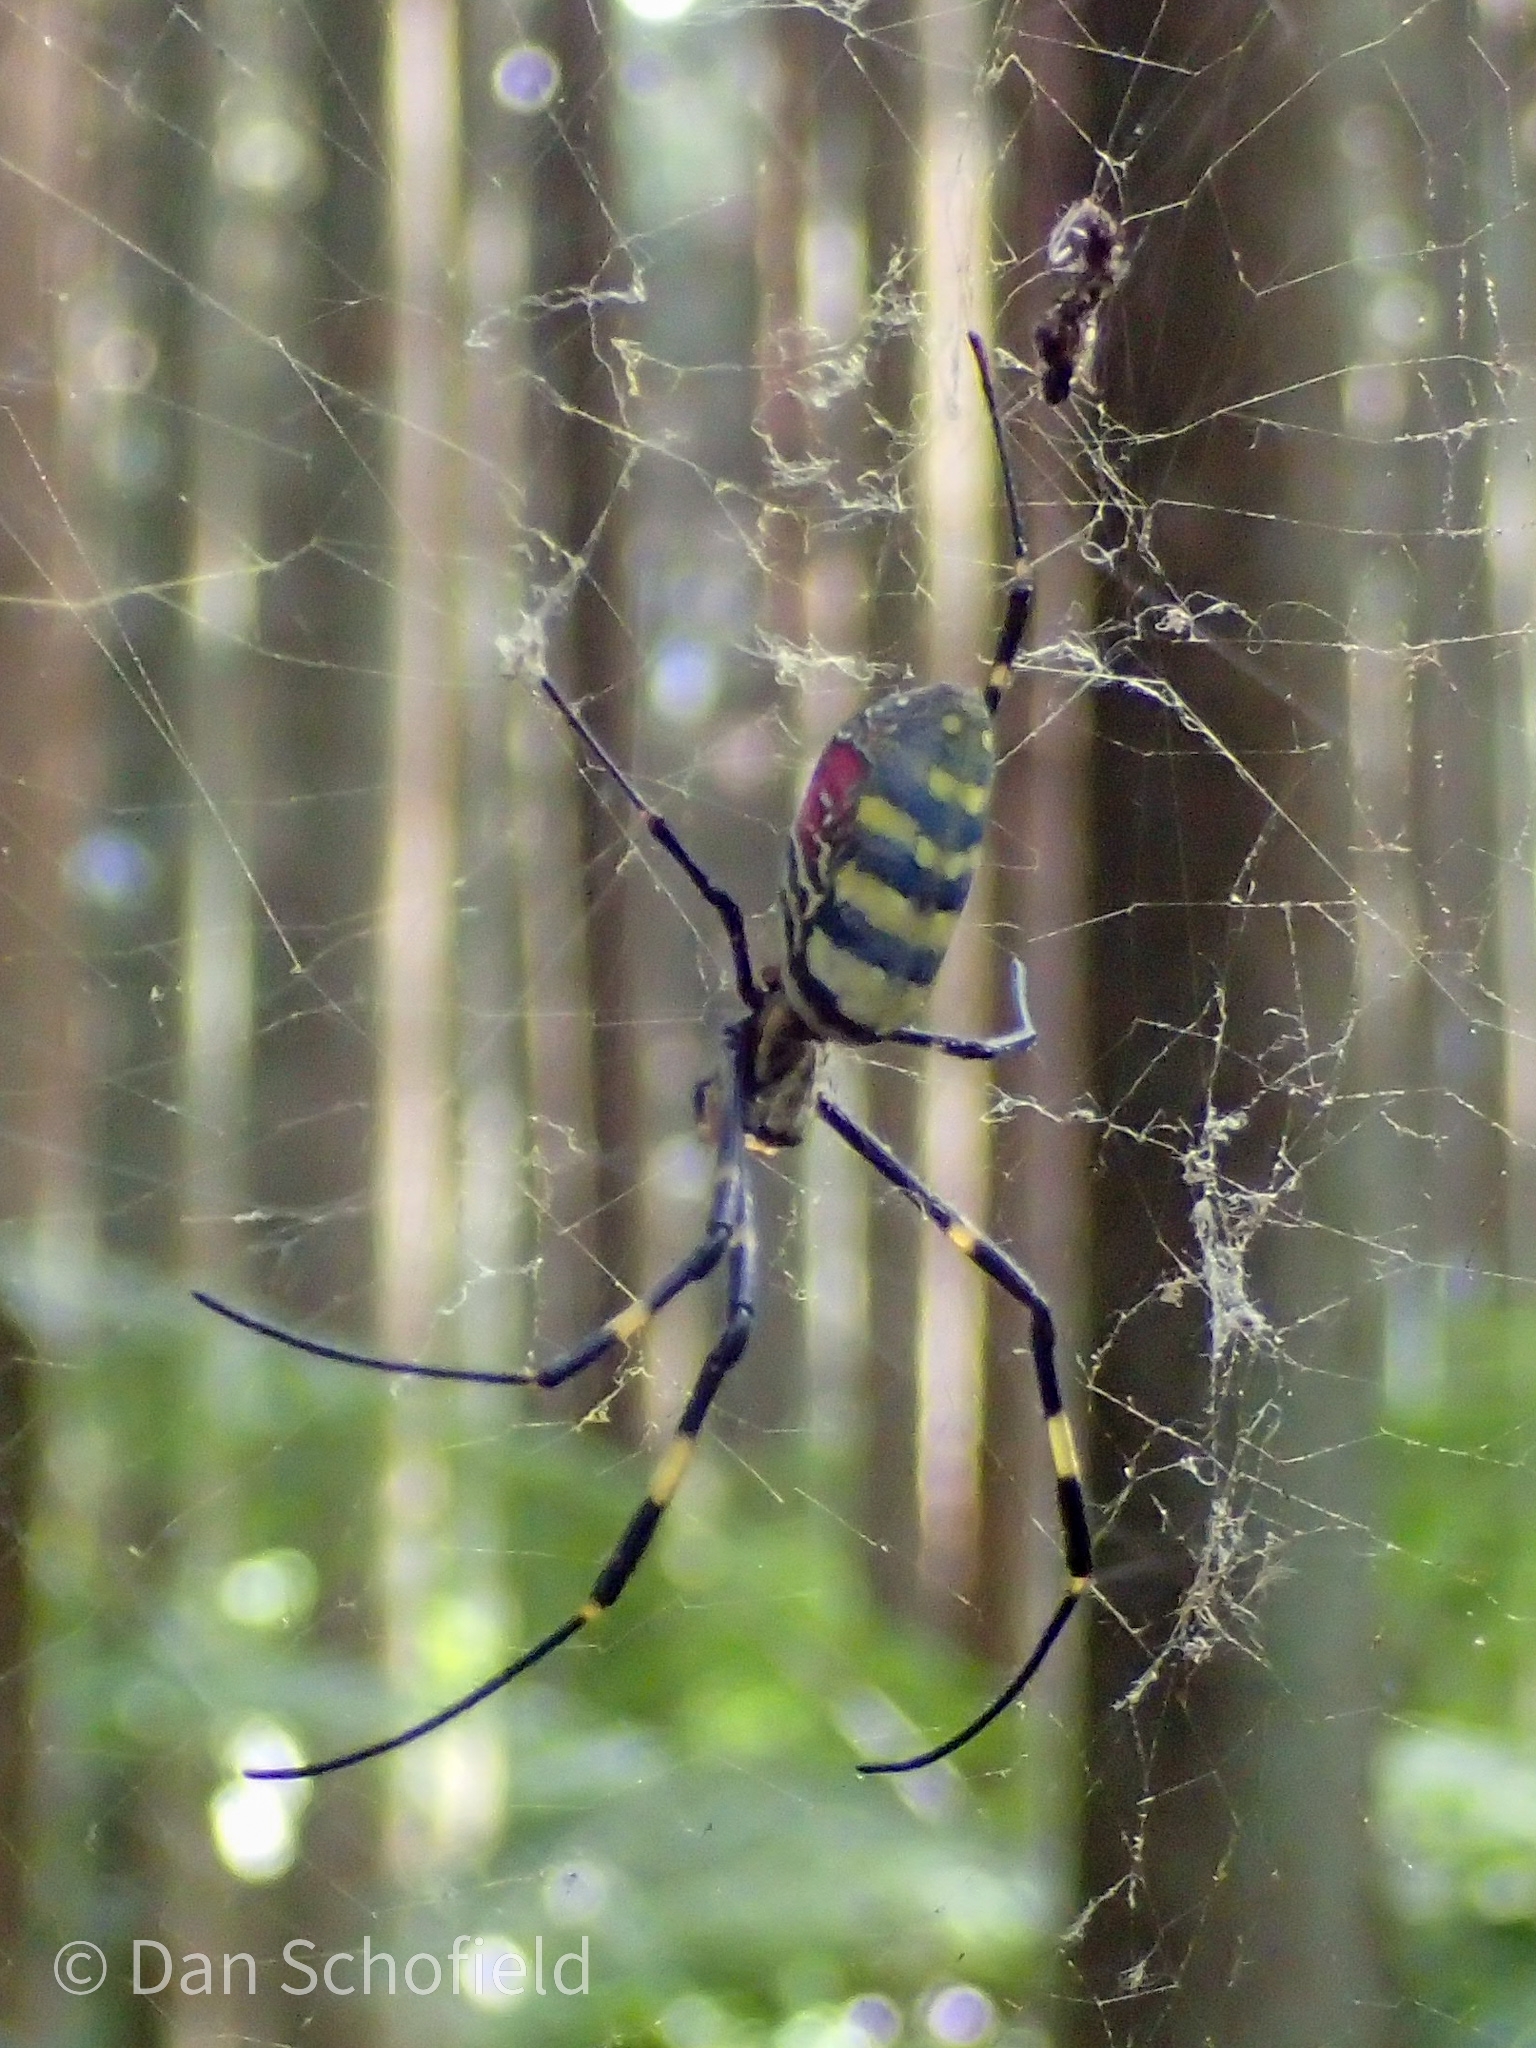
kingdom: Animalia
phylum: Arthropoda
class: Arachnida
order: Araneae
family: Araneidae
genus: Trichonephila
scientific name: Trichonephila clavata
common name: Jorō spider
